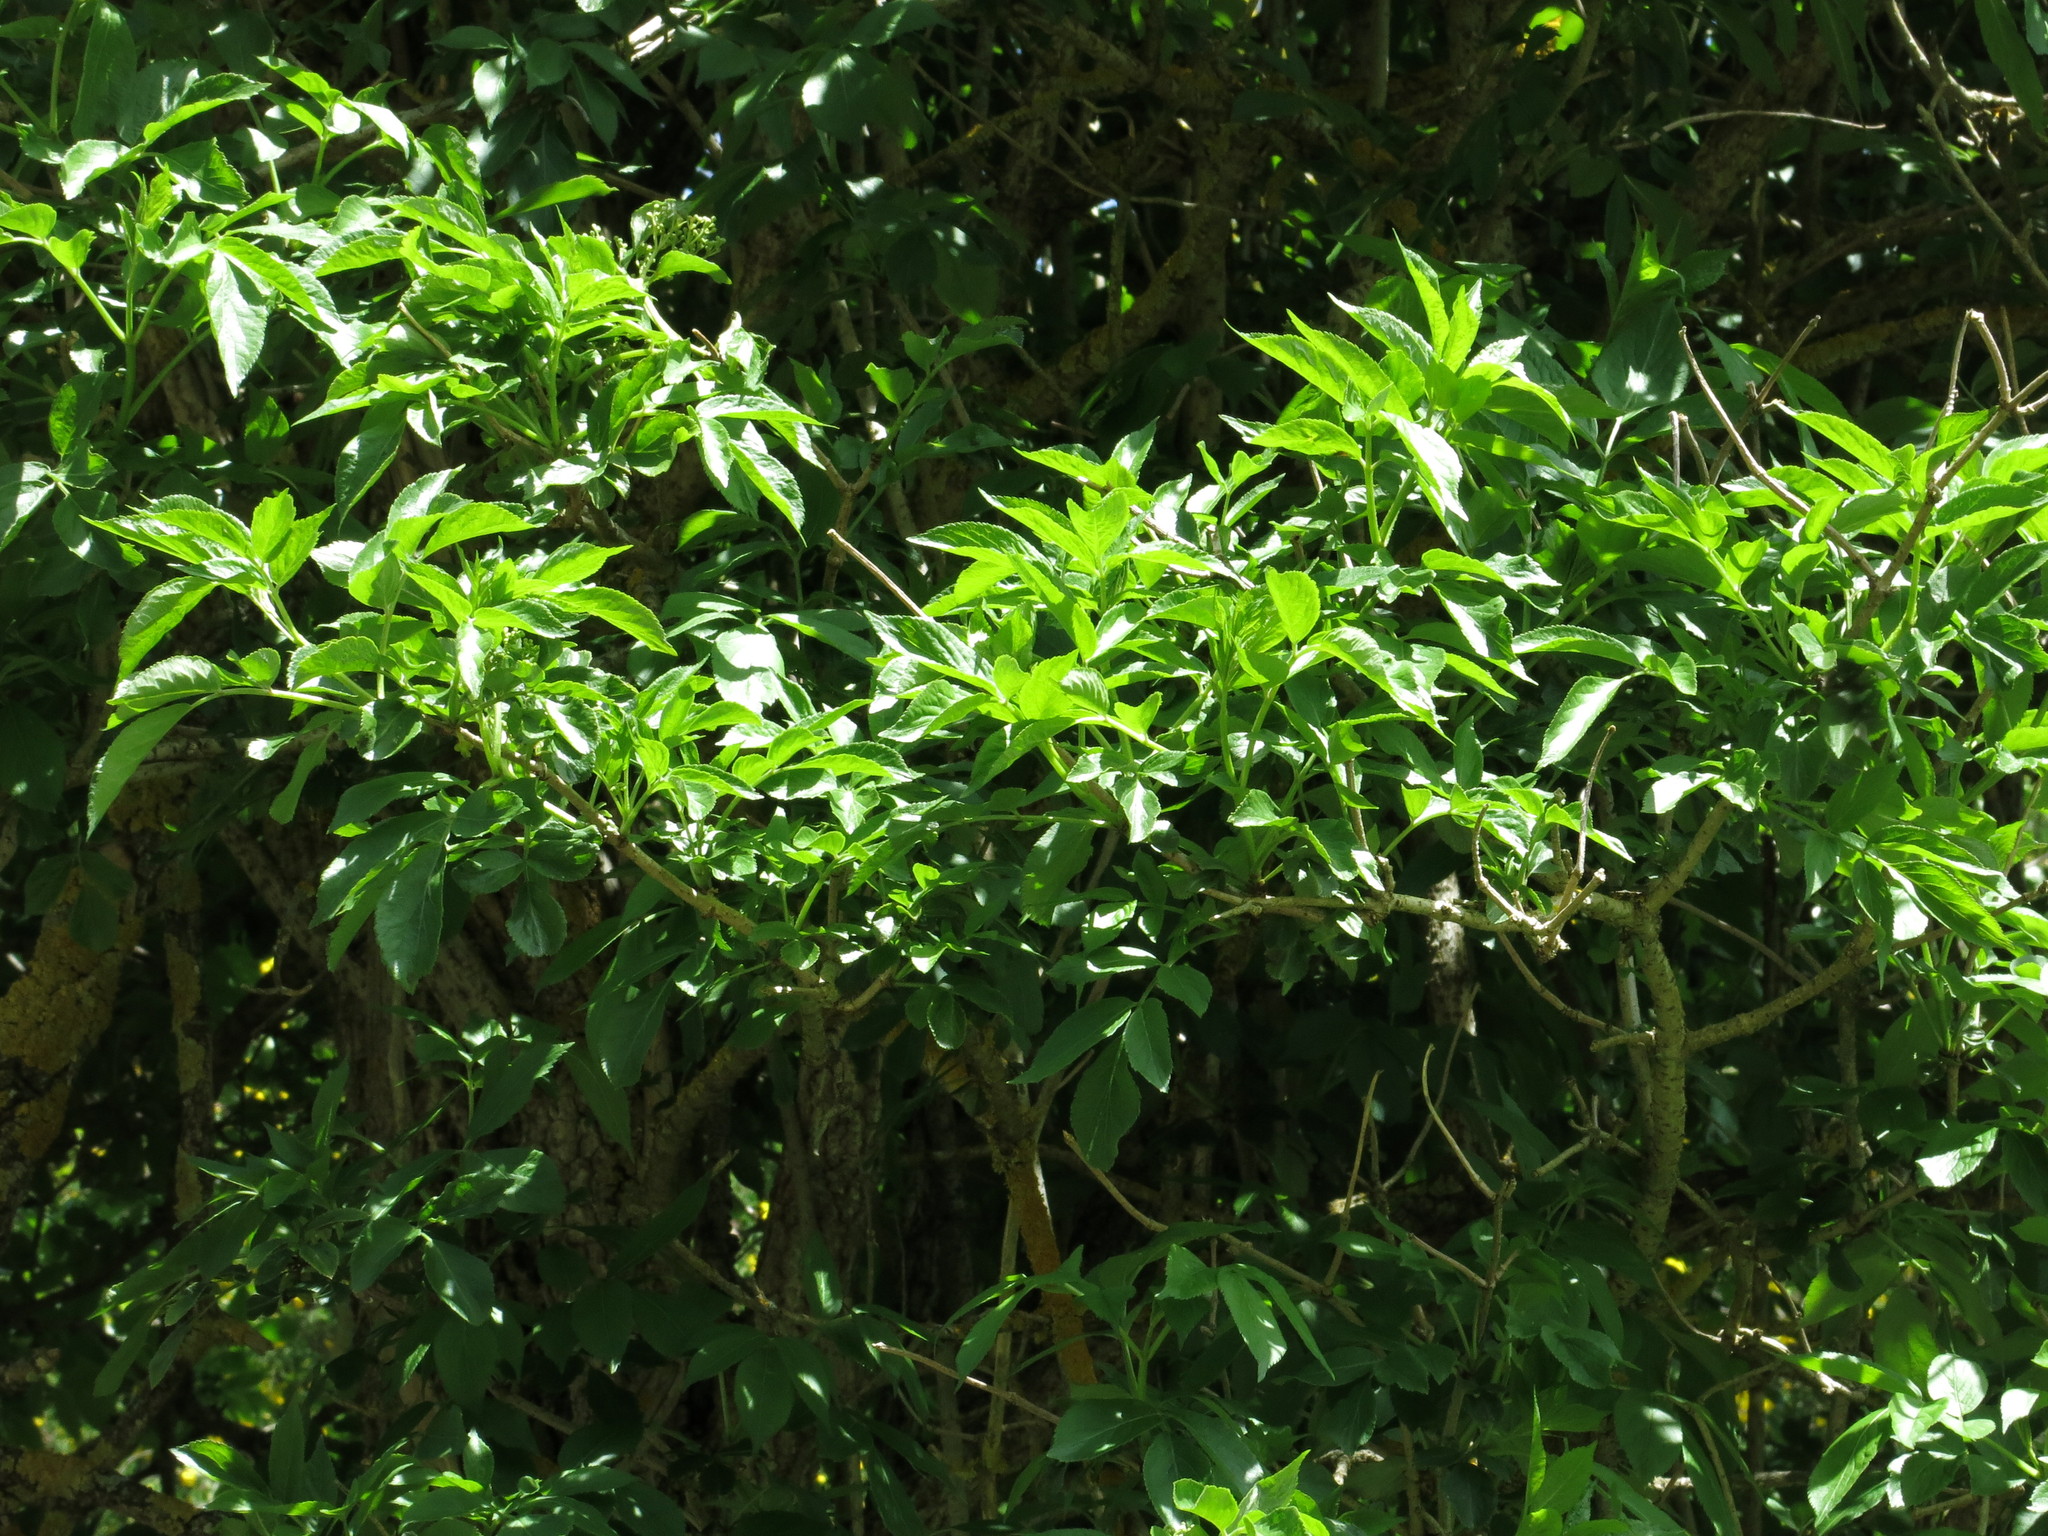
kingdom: Plantae
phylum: Tracheophyta
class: Magnoliopsida
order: Dipsacales
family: Viburnaceae
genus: Sambucus
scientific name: Sambucus nigra
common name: Elder
